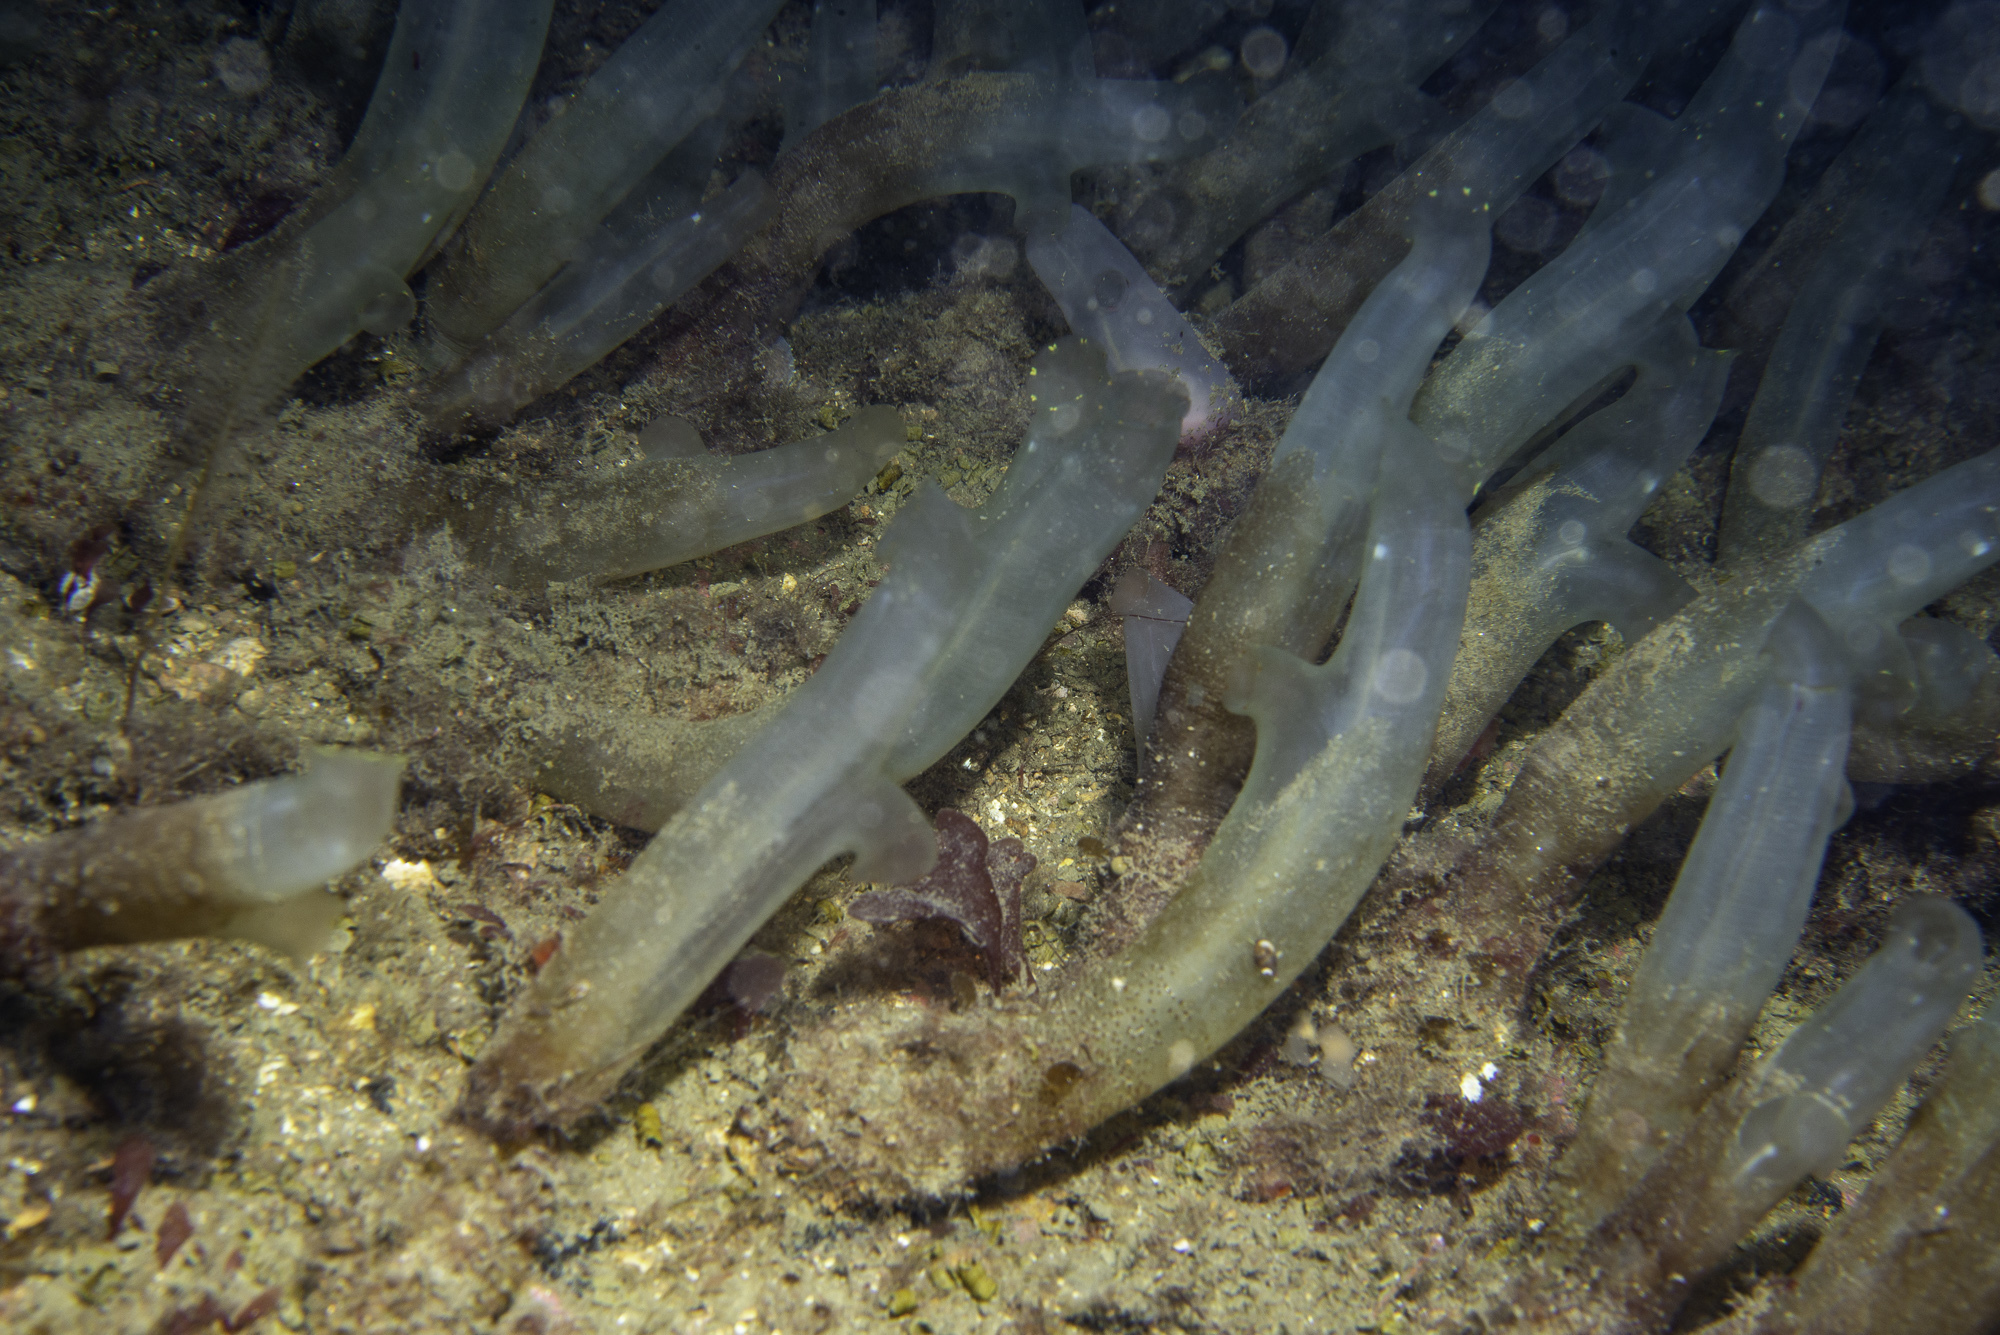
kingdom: Animalia
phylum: Chordata
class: Ascidiacea
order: Phlebobranchia
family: Cionidae
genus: Ciona
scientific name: Ciona intestinalis
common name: Vase tunicate
